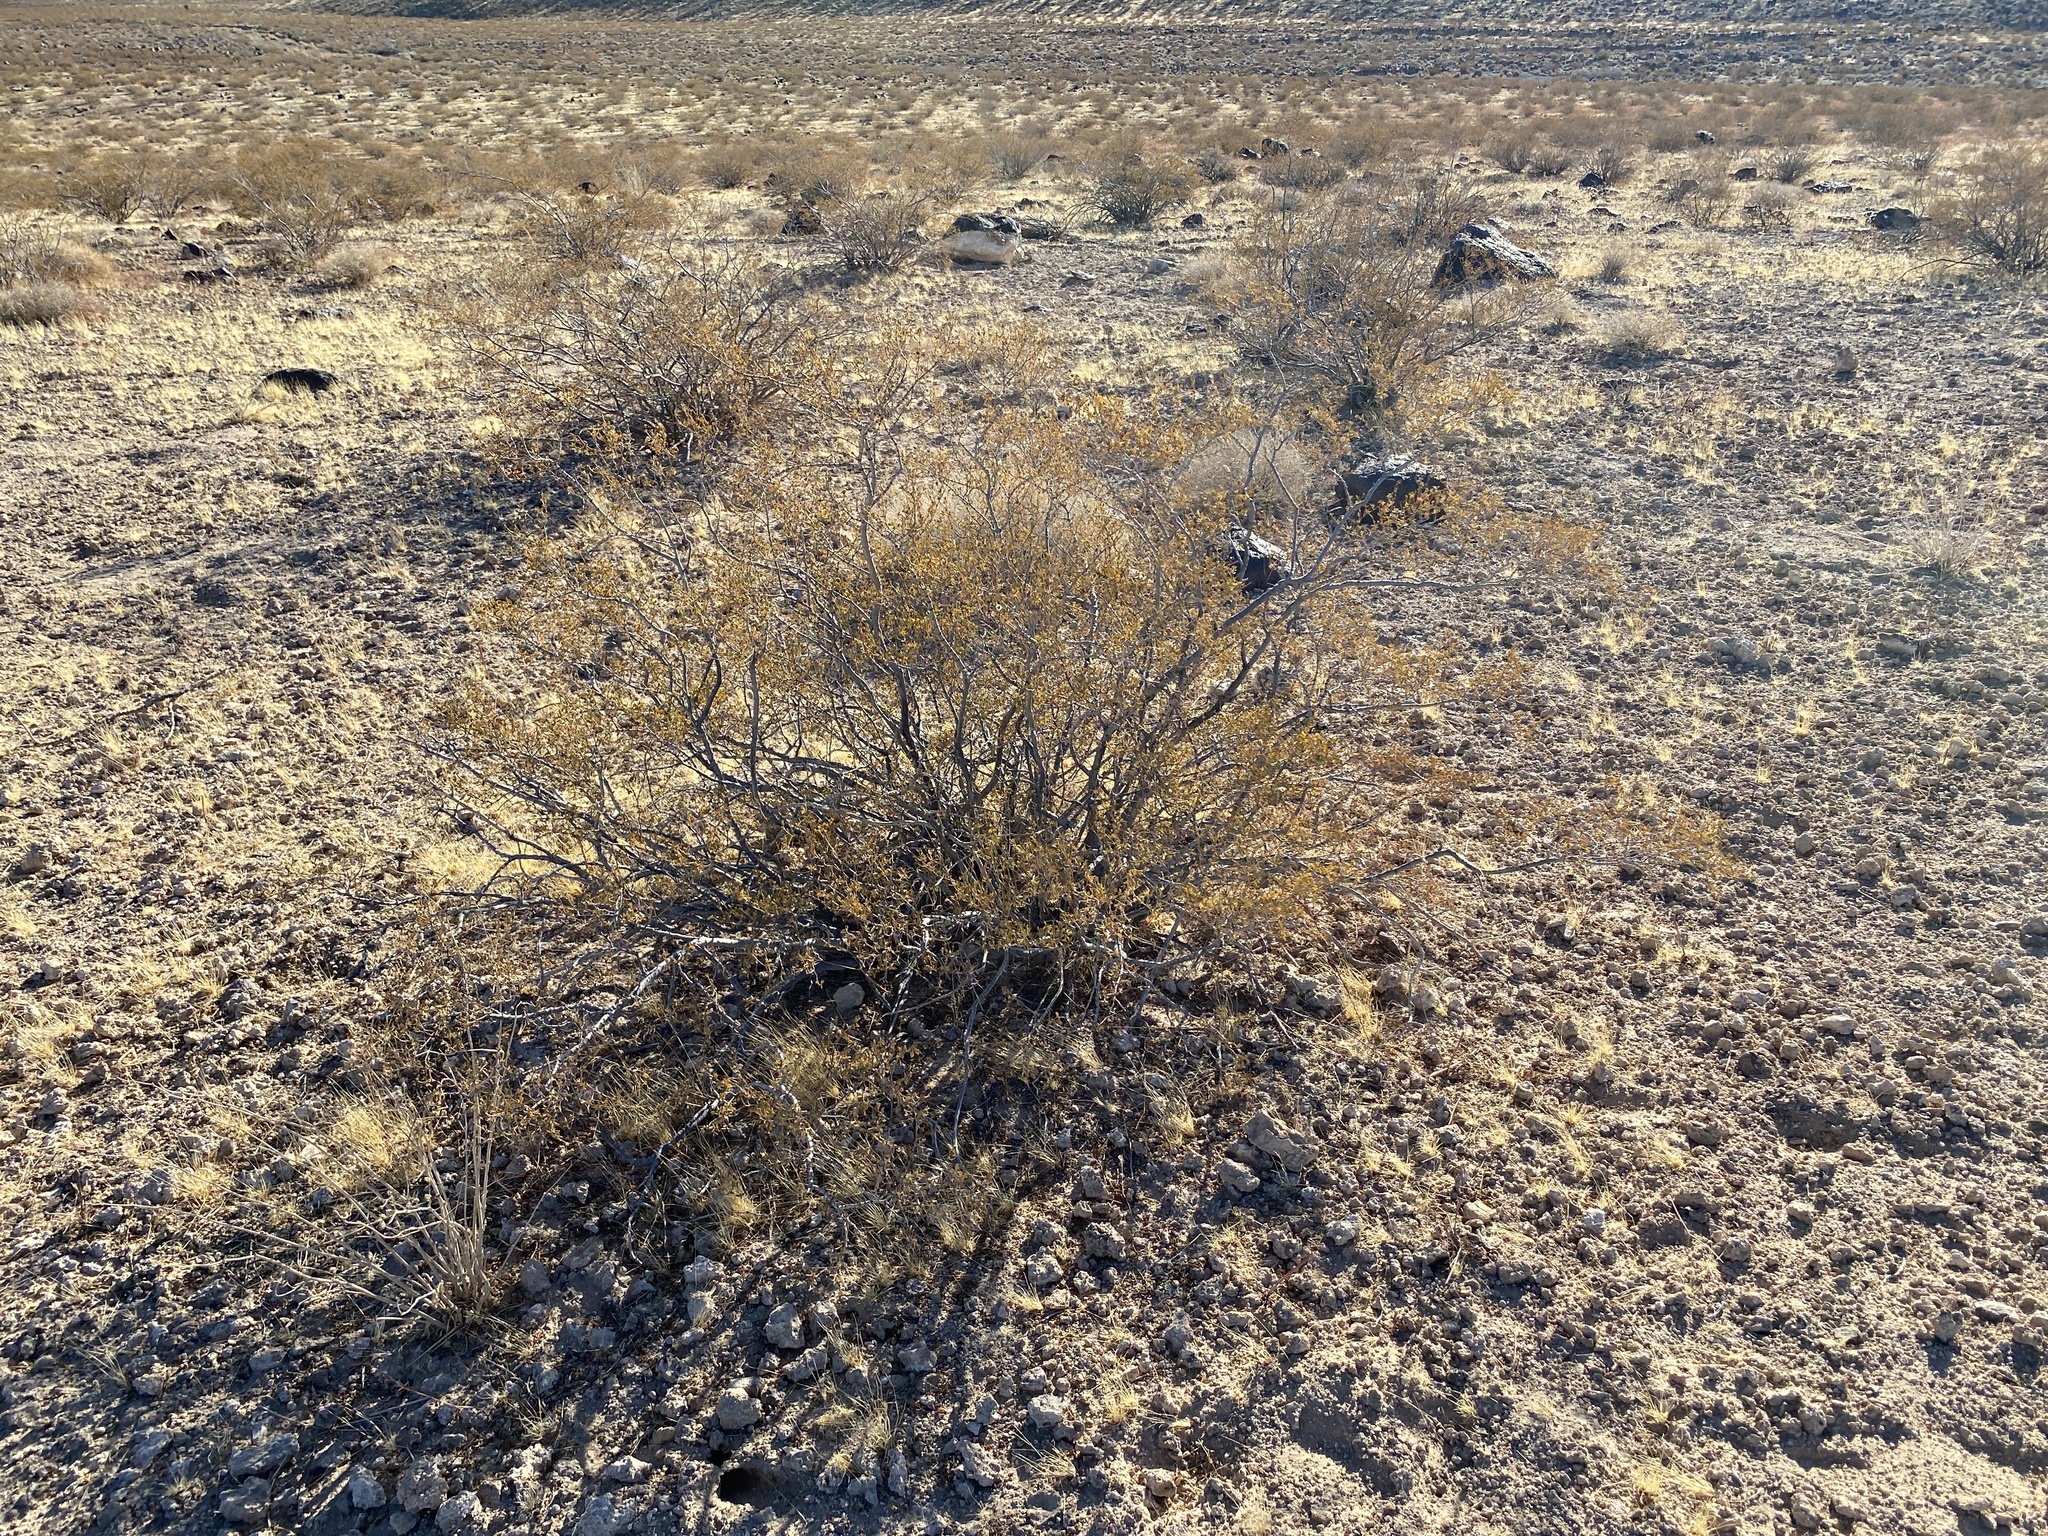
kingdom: Plantae
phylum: Tracheophyta
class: Magnoliopsida
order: Zygophyllales
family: Zygophyllaceae
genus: Larrea
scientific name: Larrea tridentata
